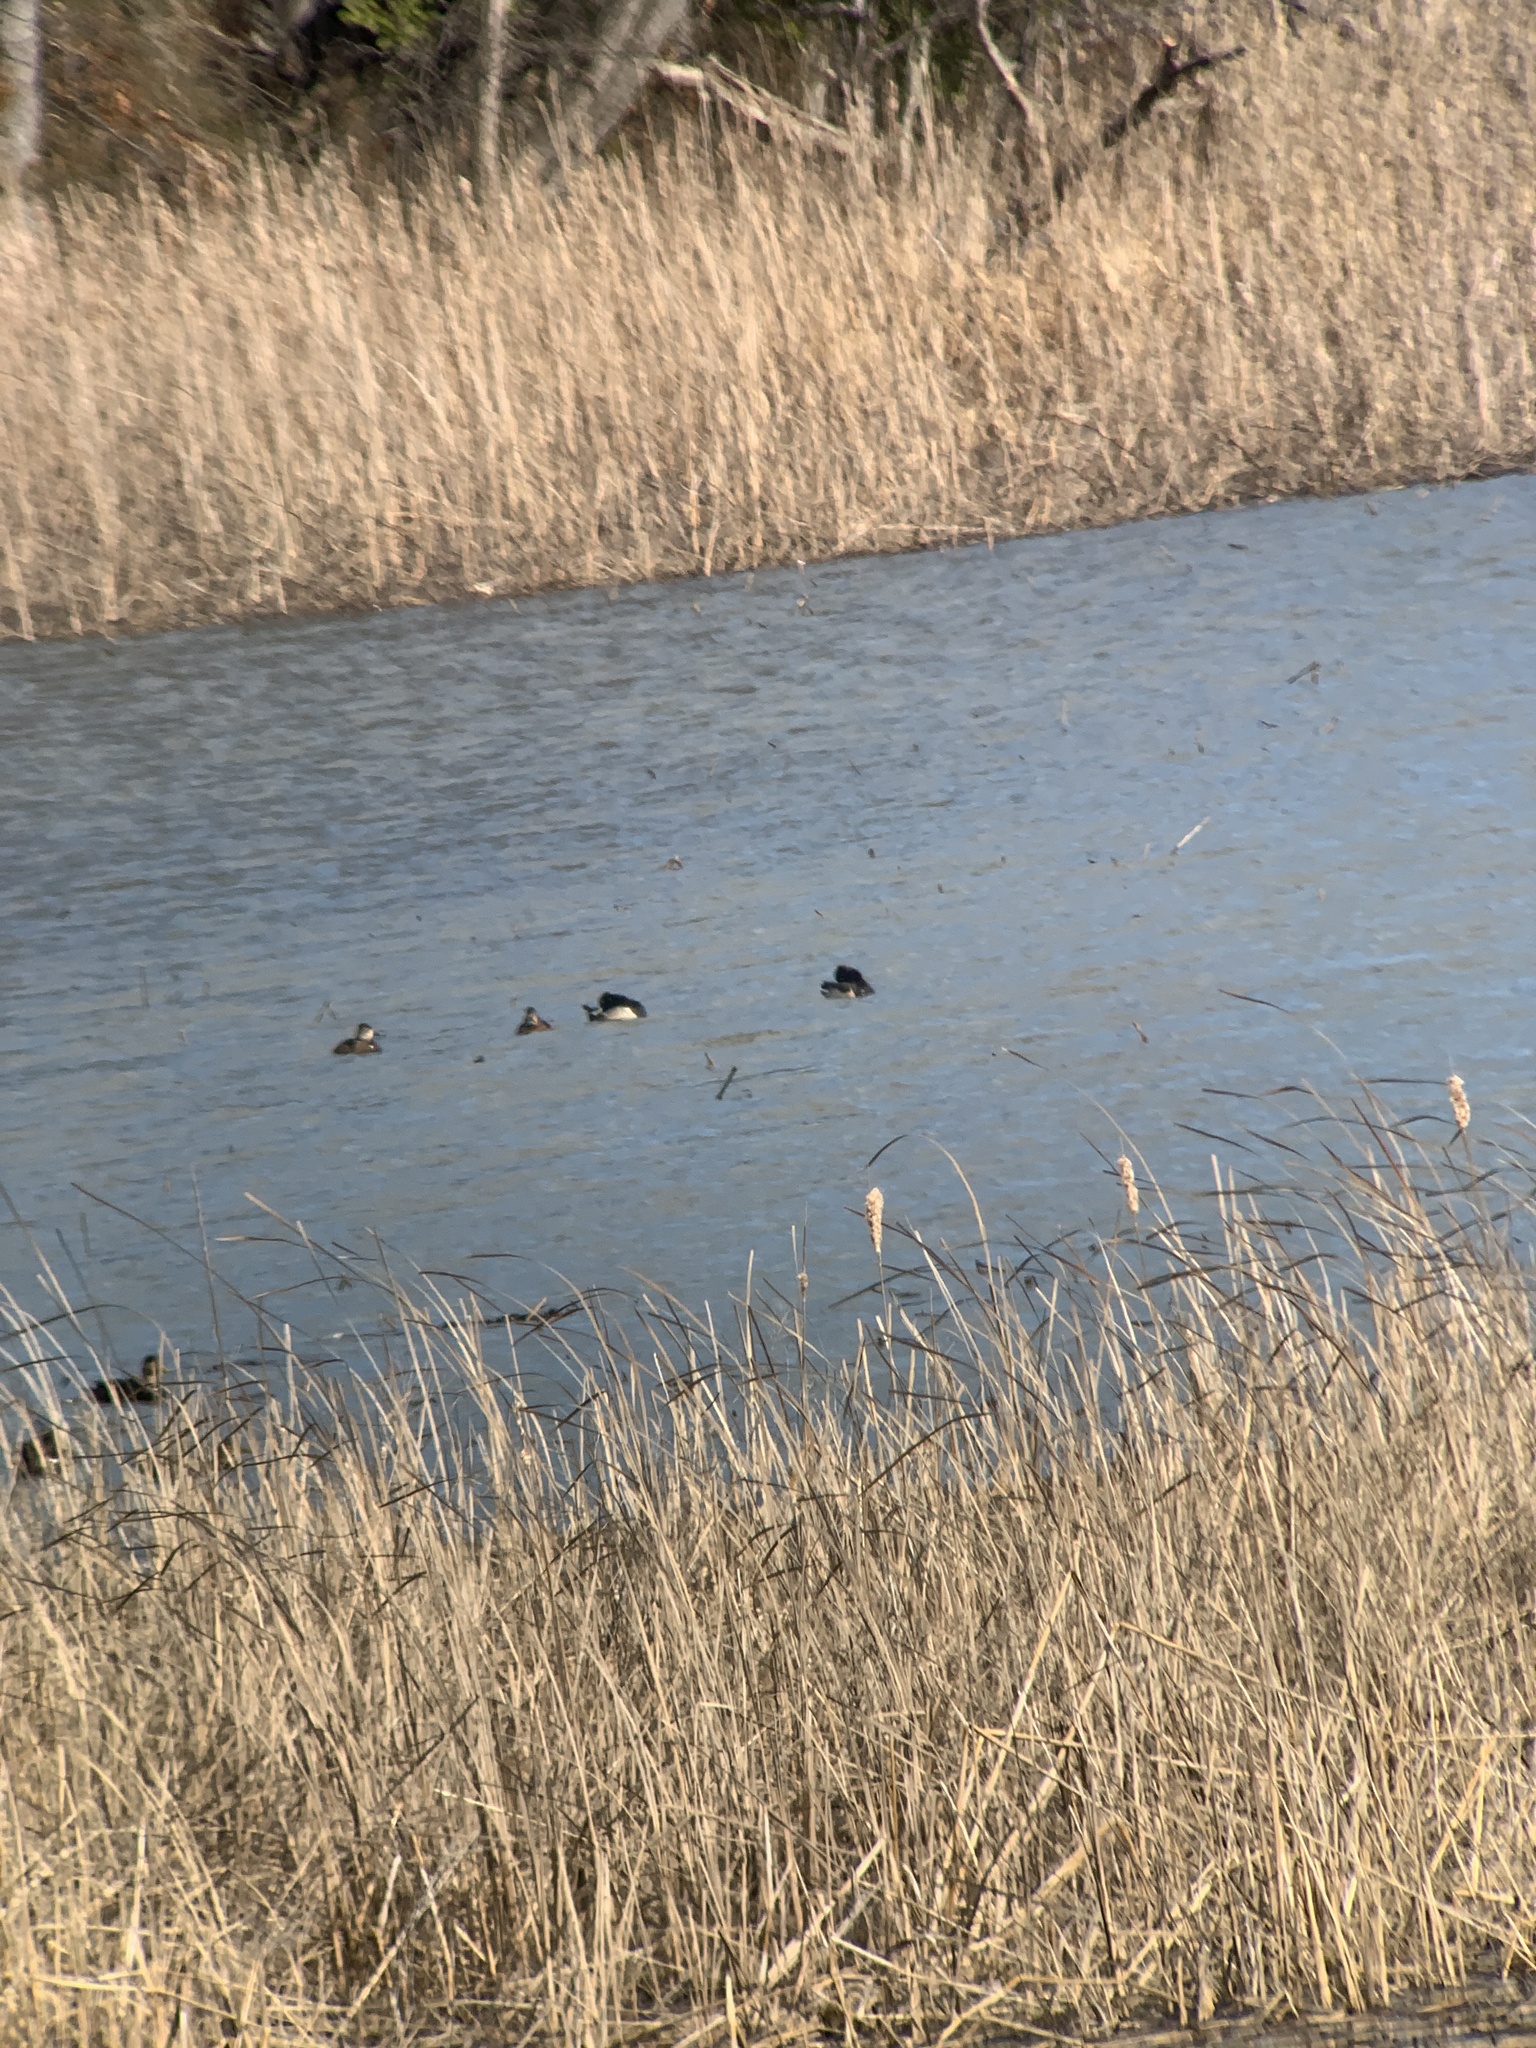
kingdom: Animalia
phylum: Chordata
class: Aves
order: Anseriformes
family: Anatidae
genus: Aythya
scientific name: Aythya collaris
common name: Ring-necked duck
